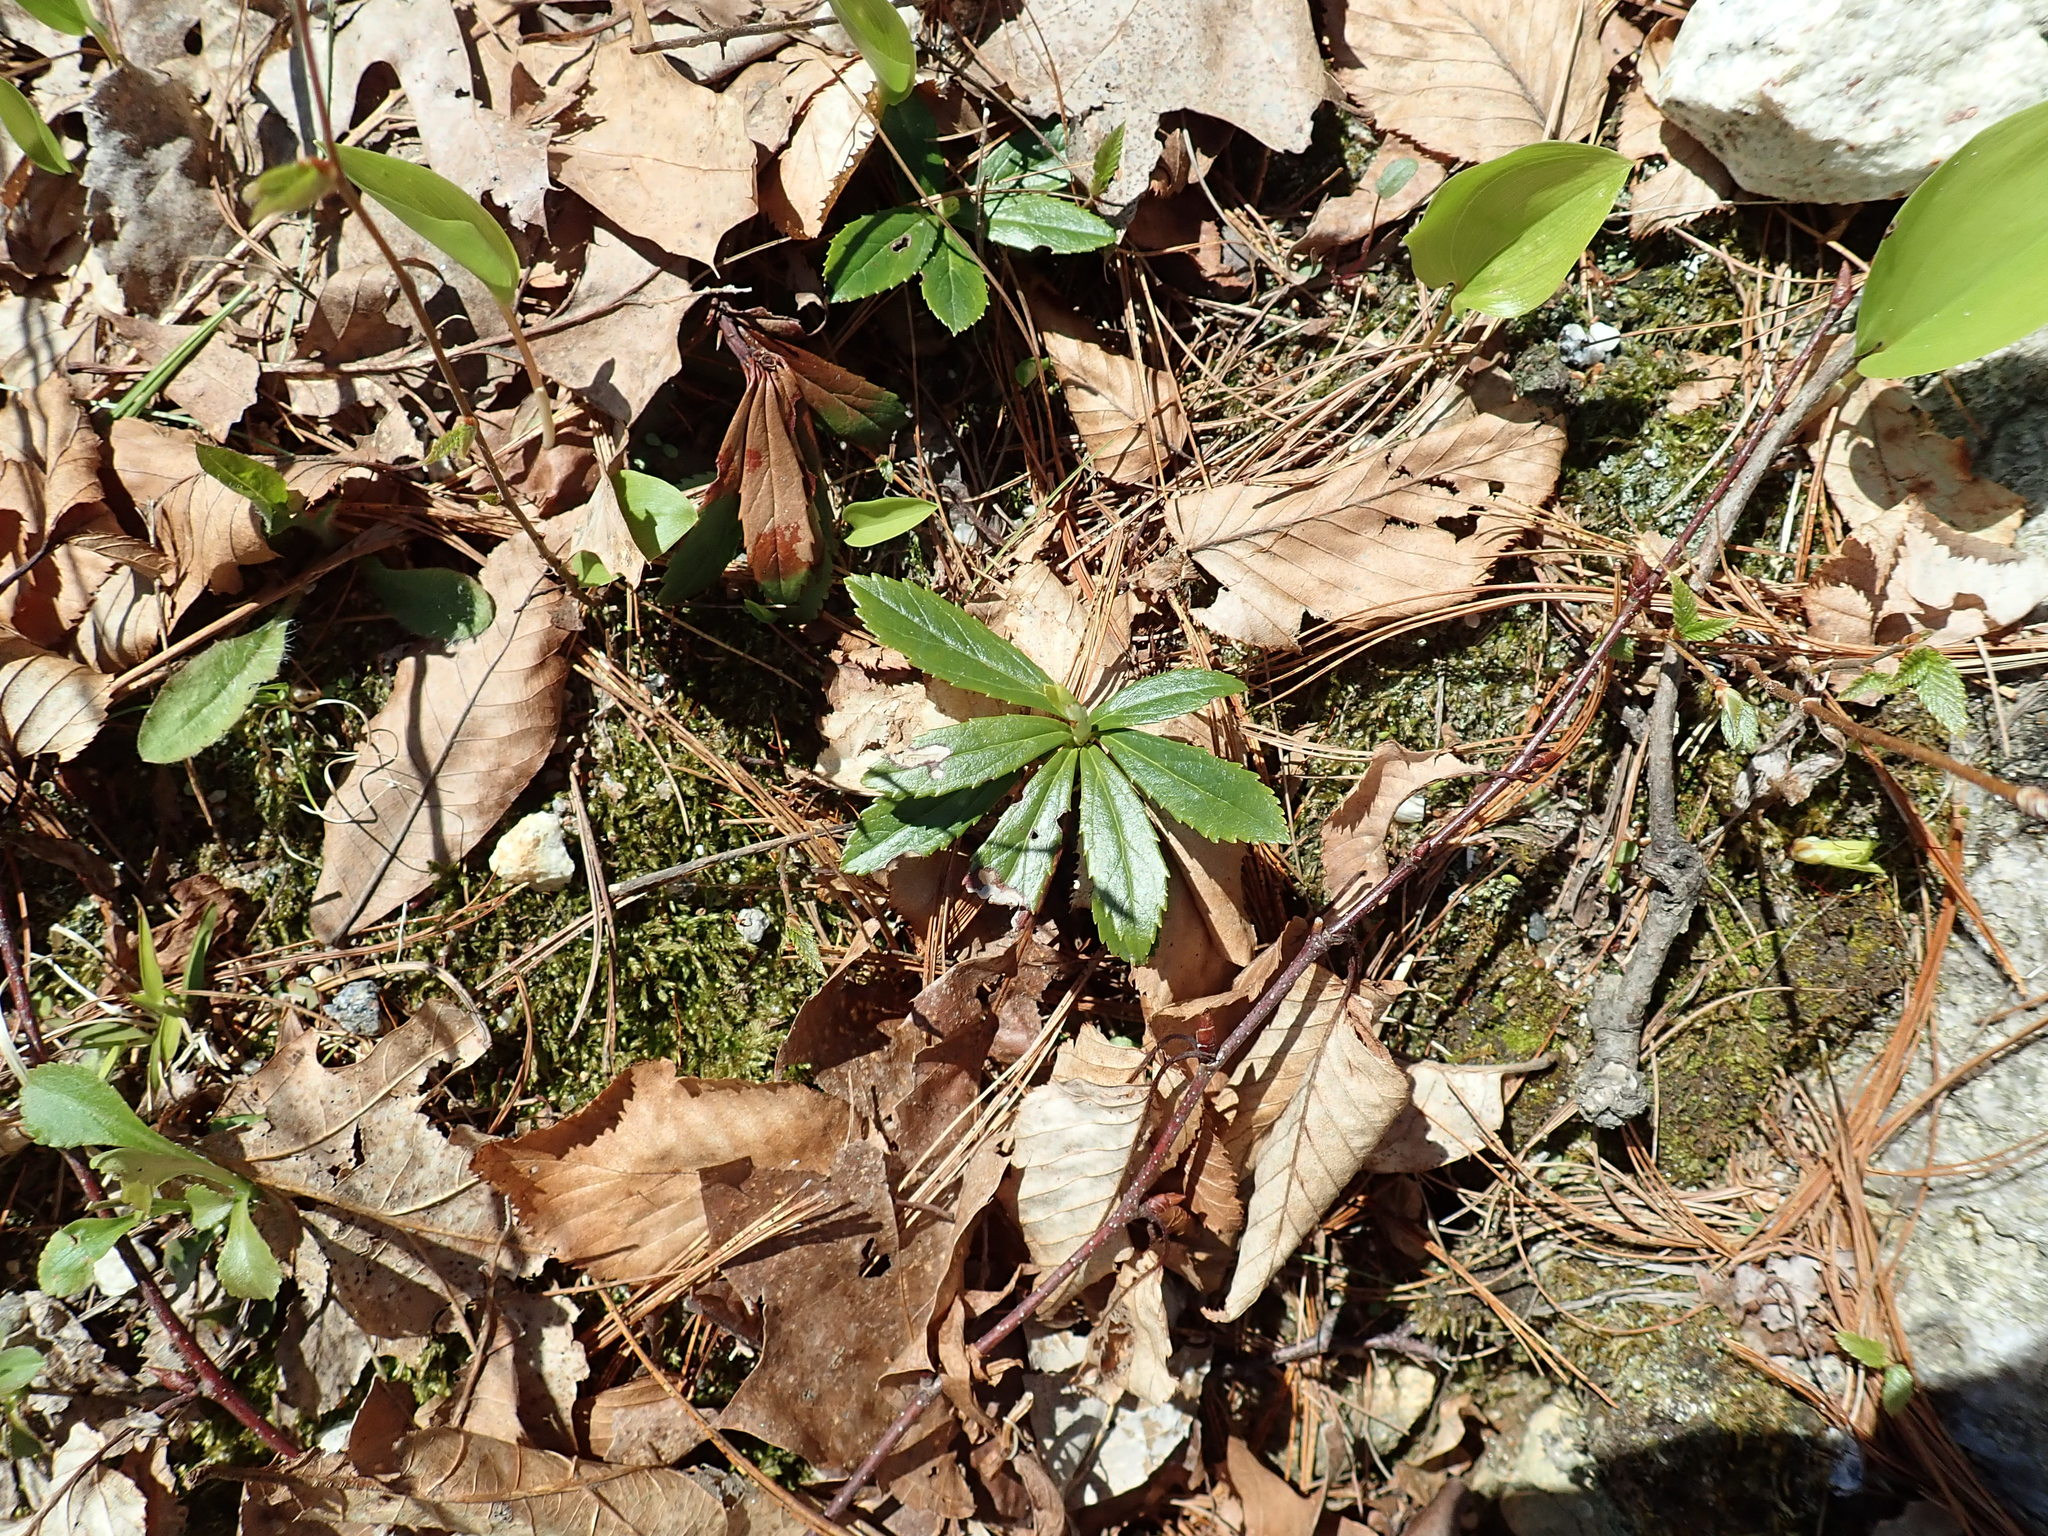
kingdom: Plantae
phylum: Tracheophyta
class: Magnoliopsida
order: Ericales
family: Ericaceae
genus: Chimaphila
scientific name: Chimaphila umbellata
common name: Pipsissewa
